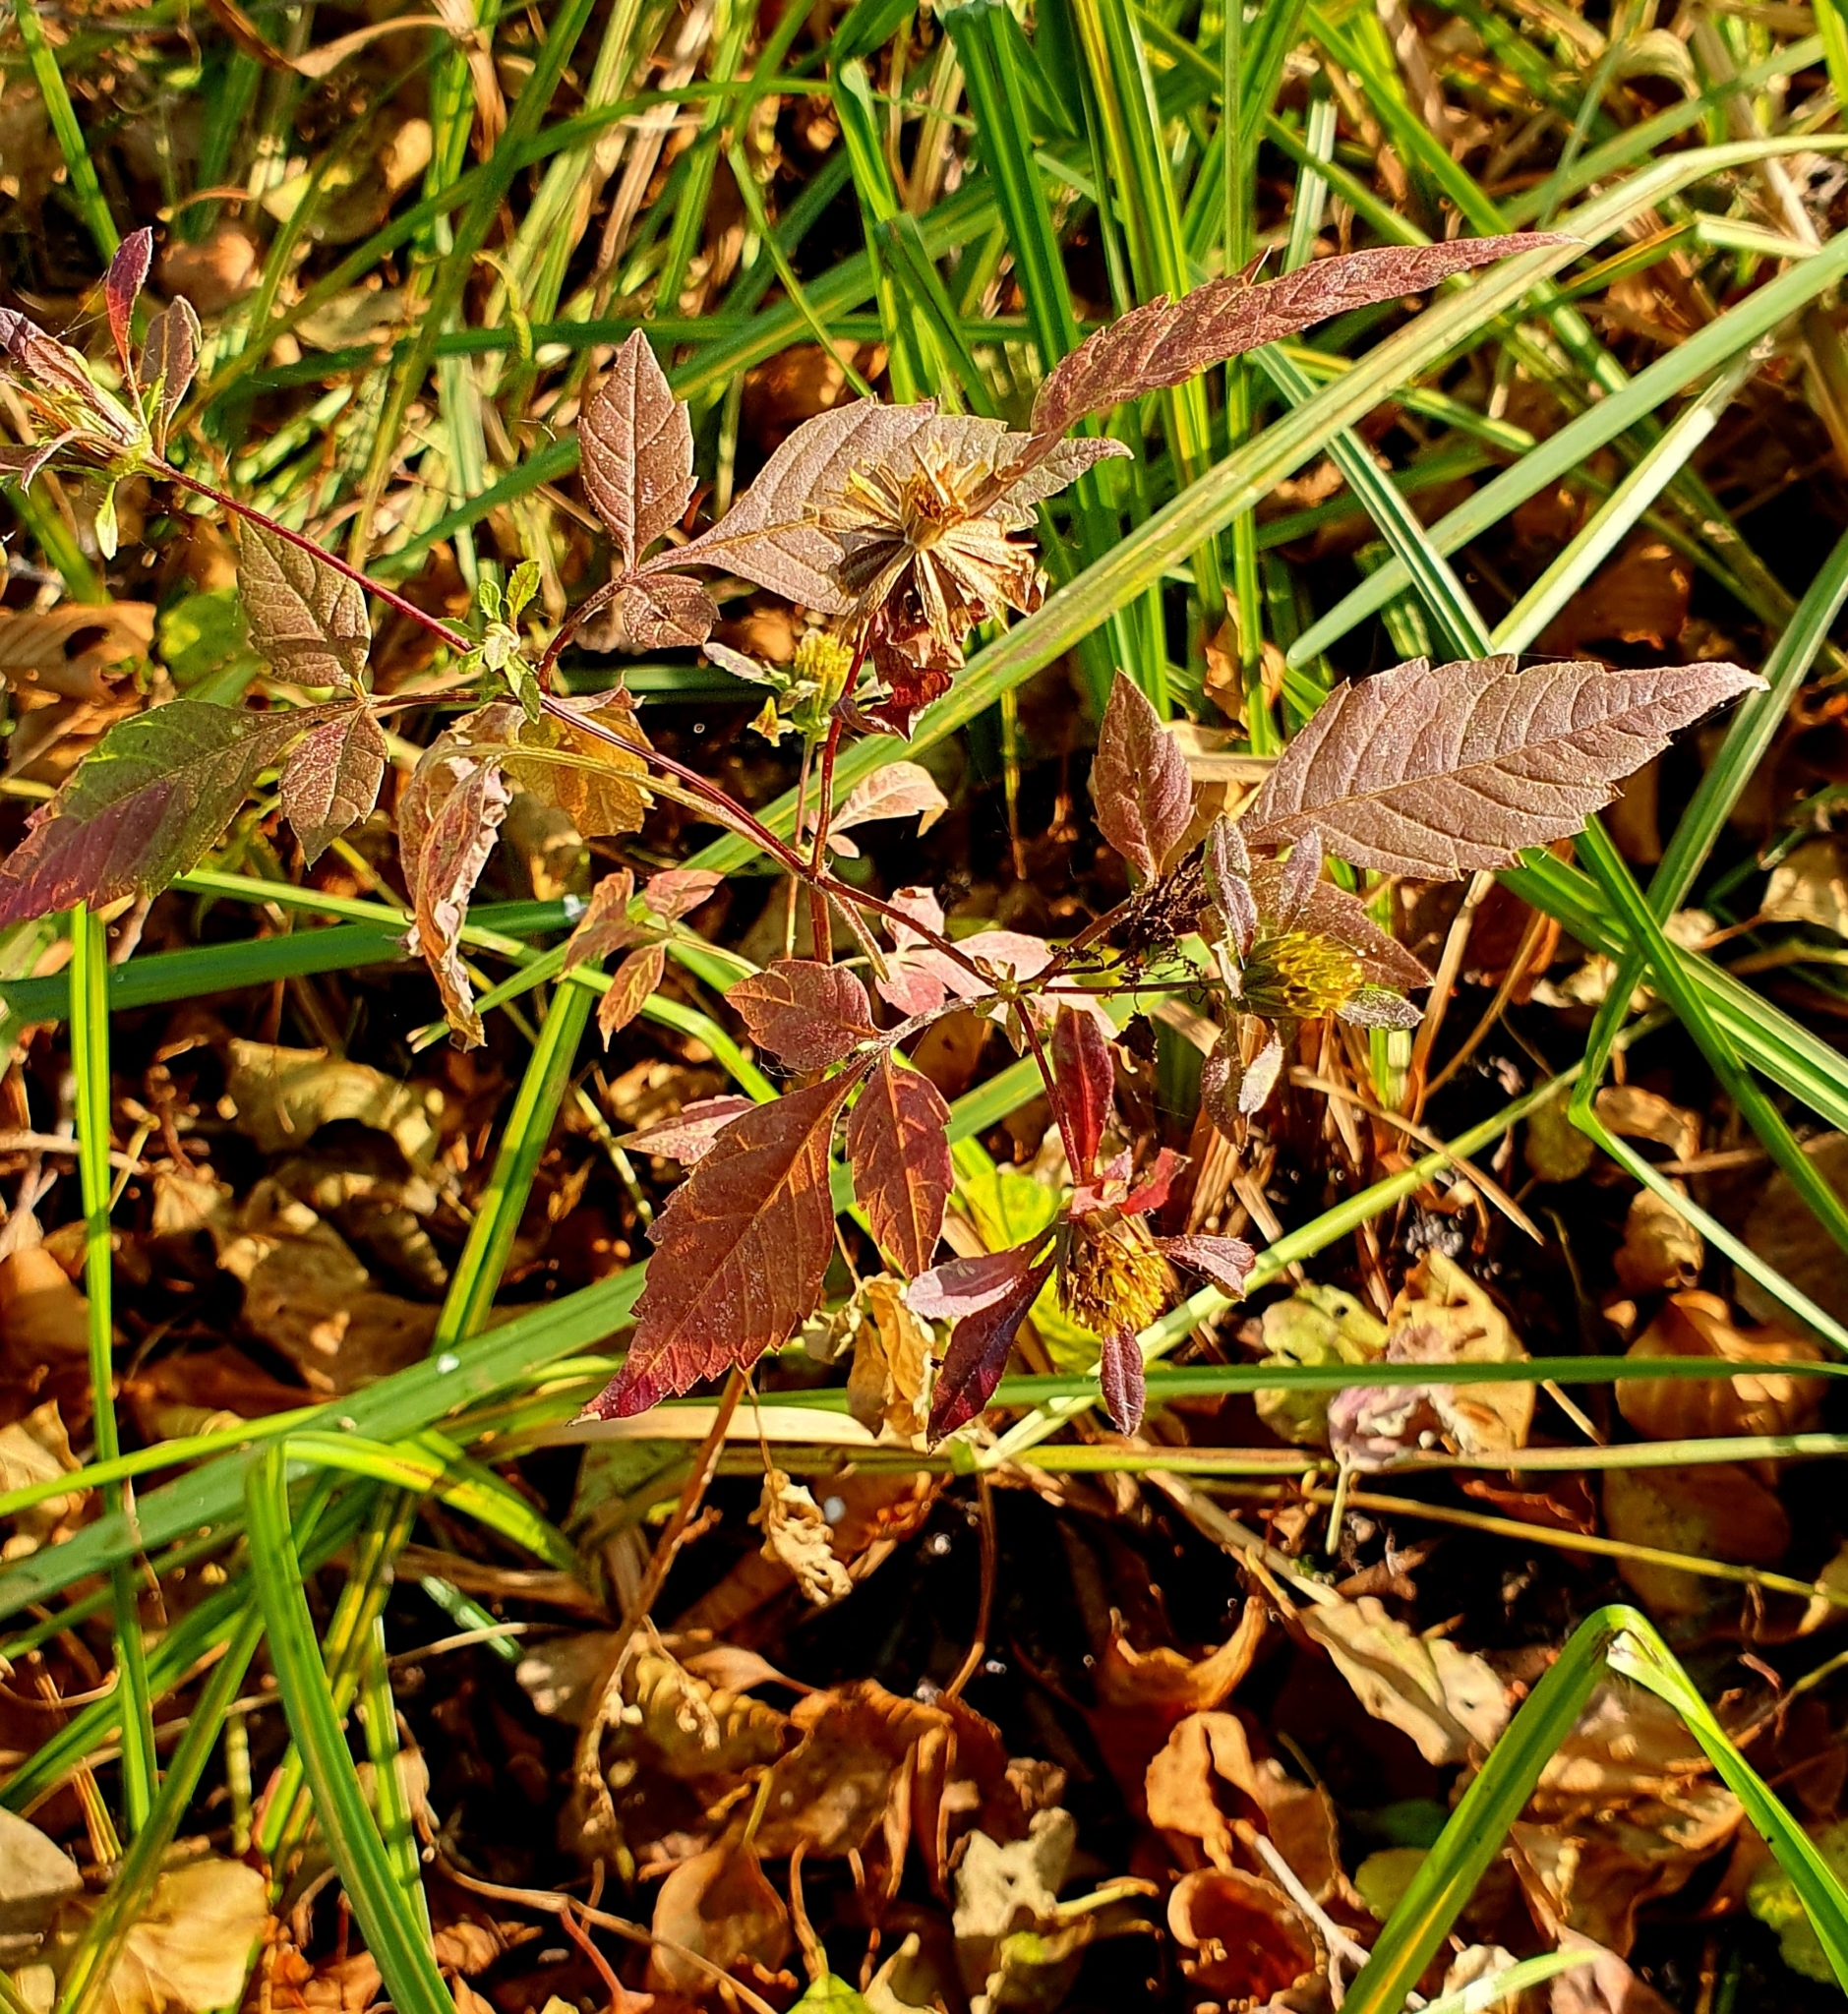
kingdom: Plantae
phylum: Tracheophyta
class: Magnoliopsida
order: Asterales
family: Asteraceae
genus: Bidens
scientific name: Bidens frondosa
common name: Beggarticks
